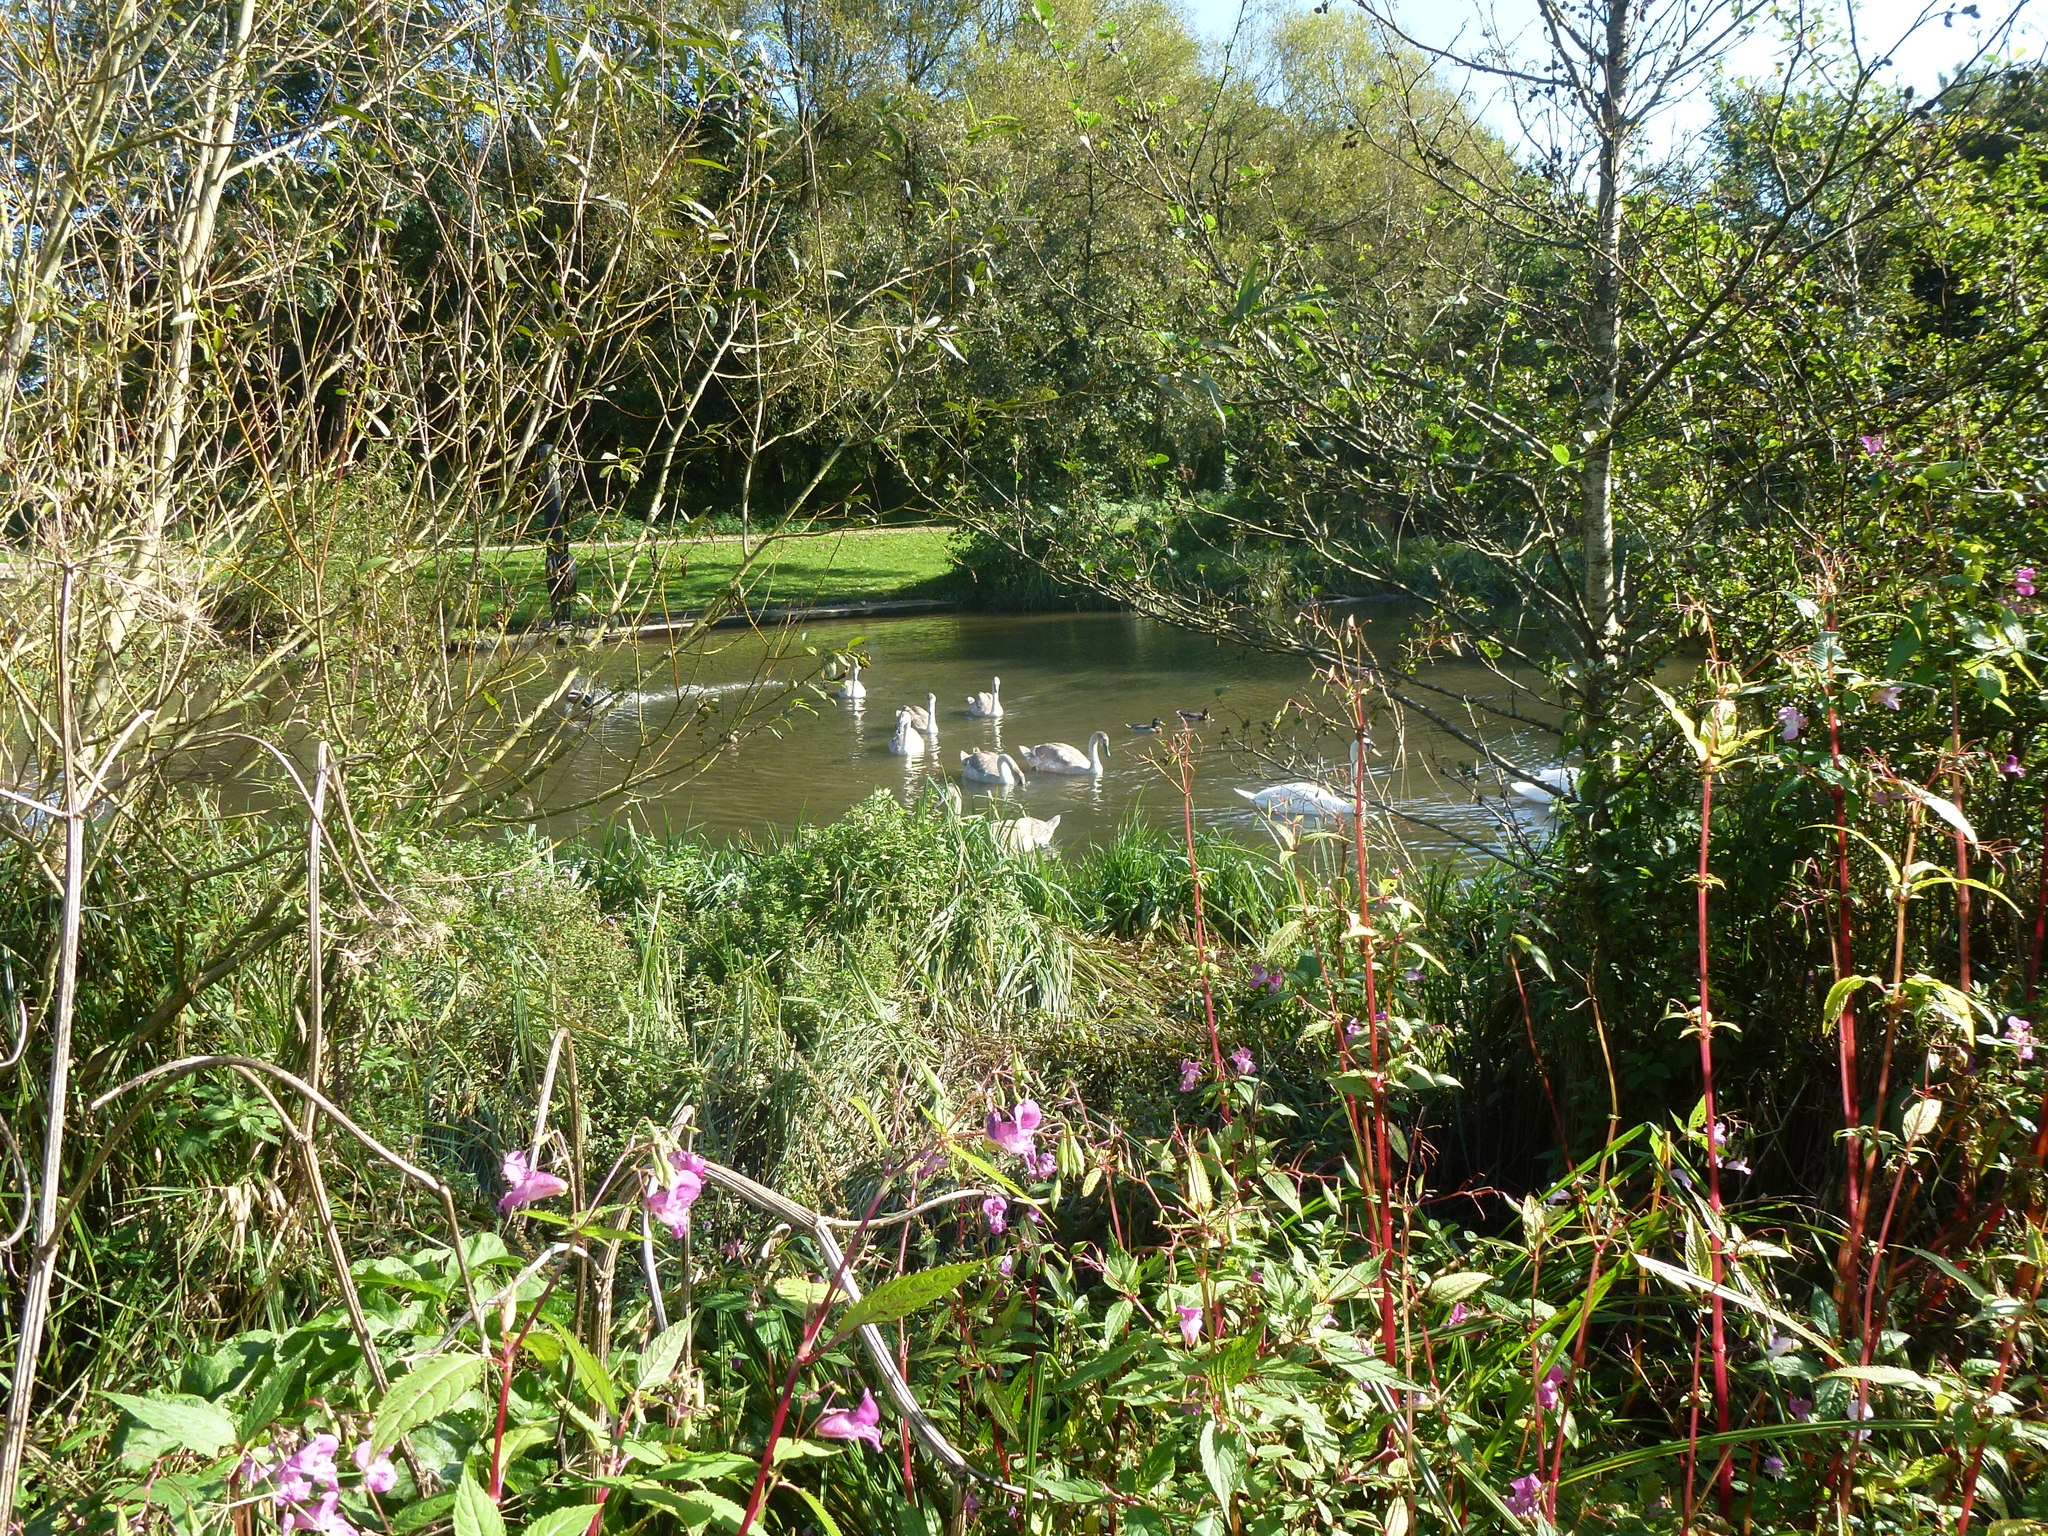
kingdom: Animalia
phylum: Chordata
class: Aves
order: Anseriformes
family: Anatidae
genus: Cygnus
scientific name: Cygnus olor
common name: Mute swan
